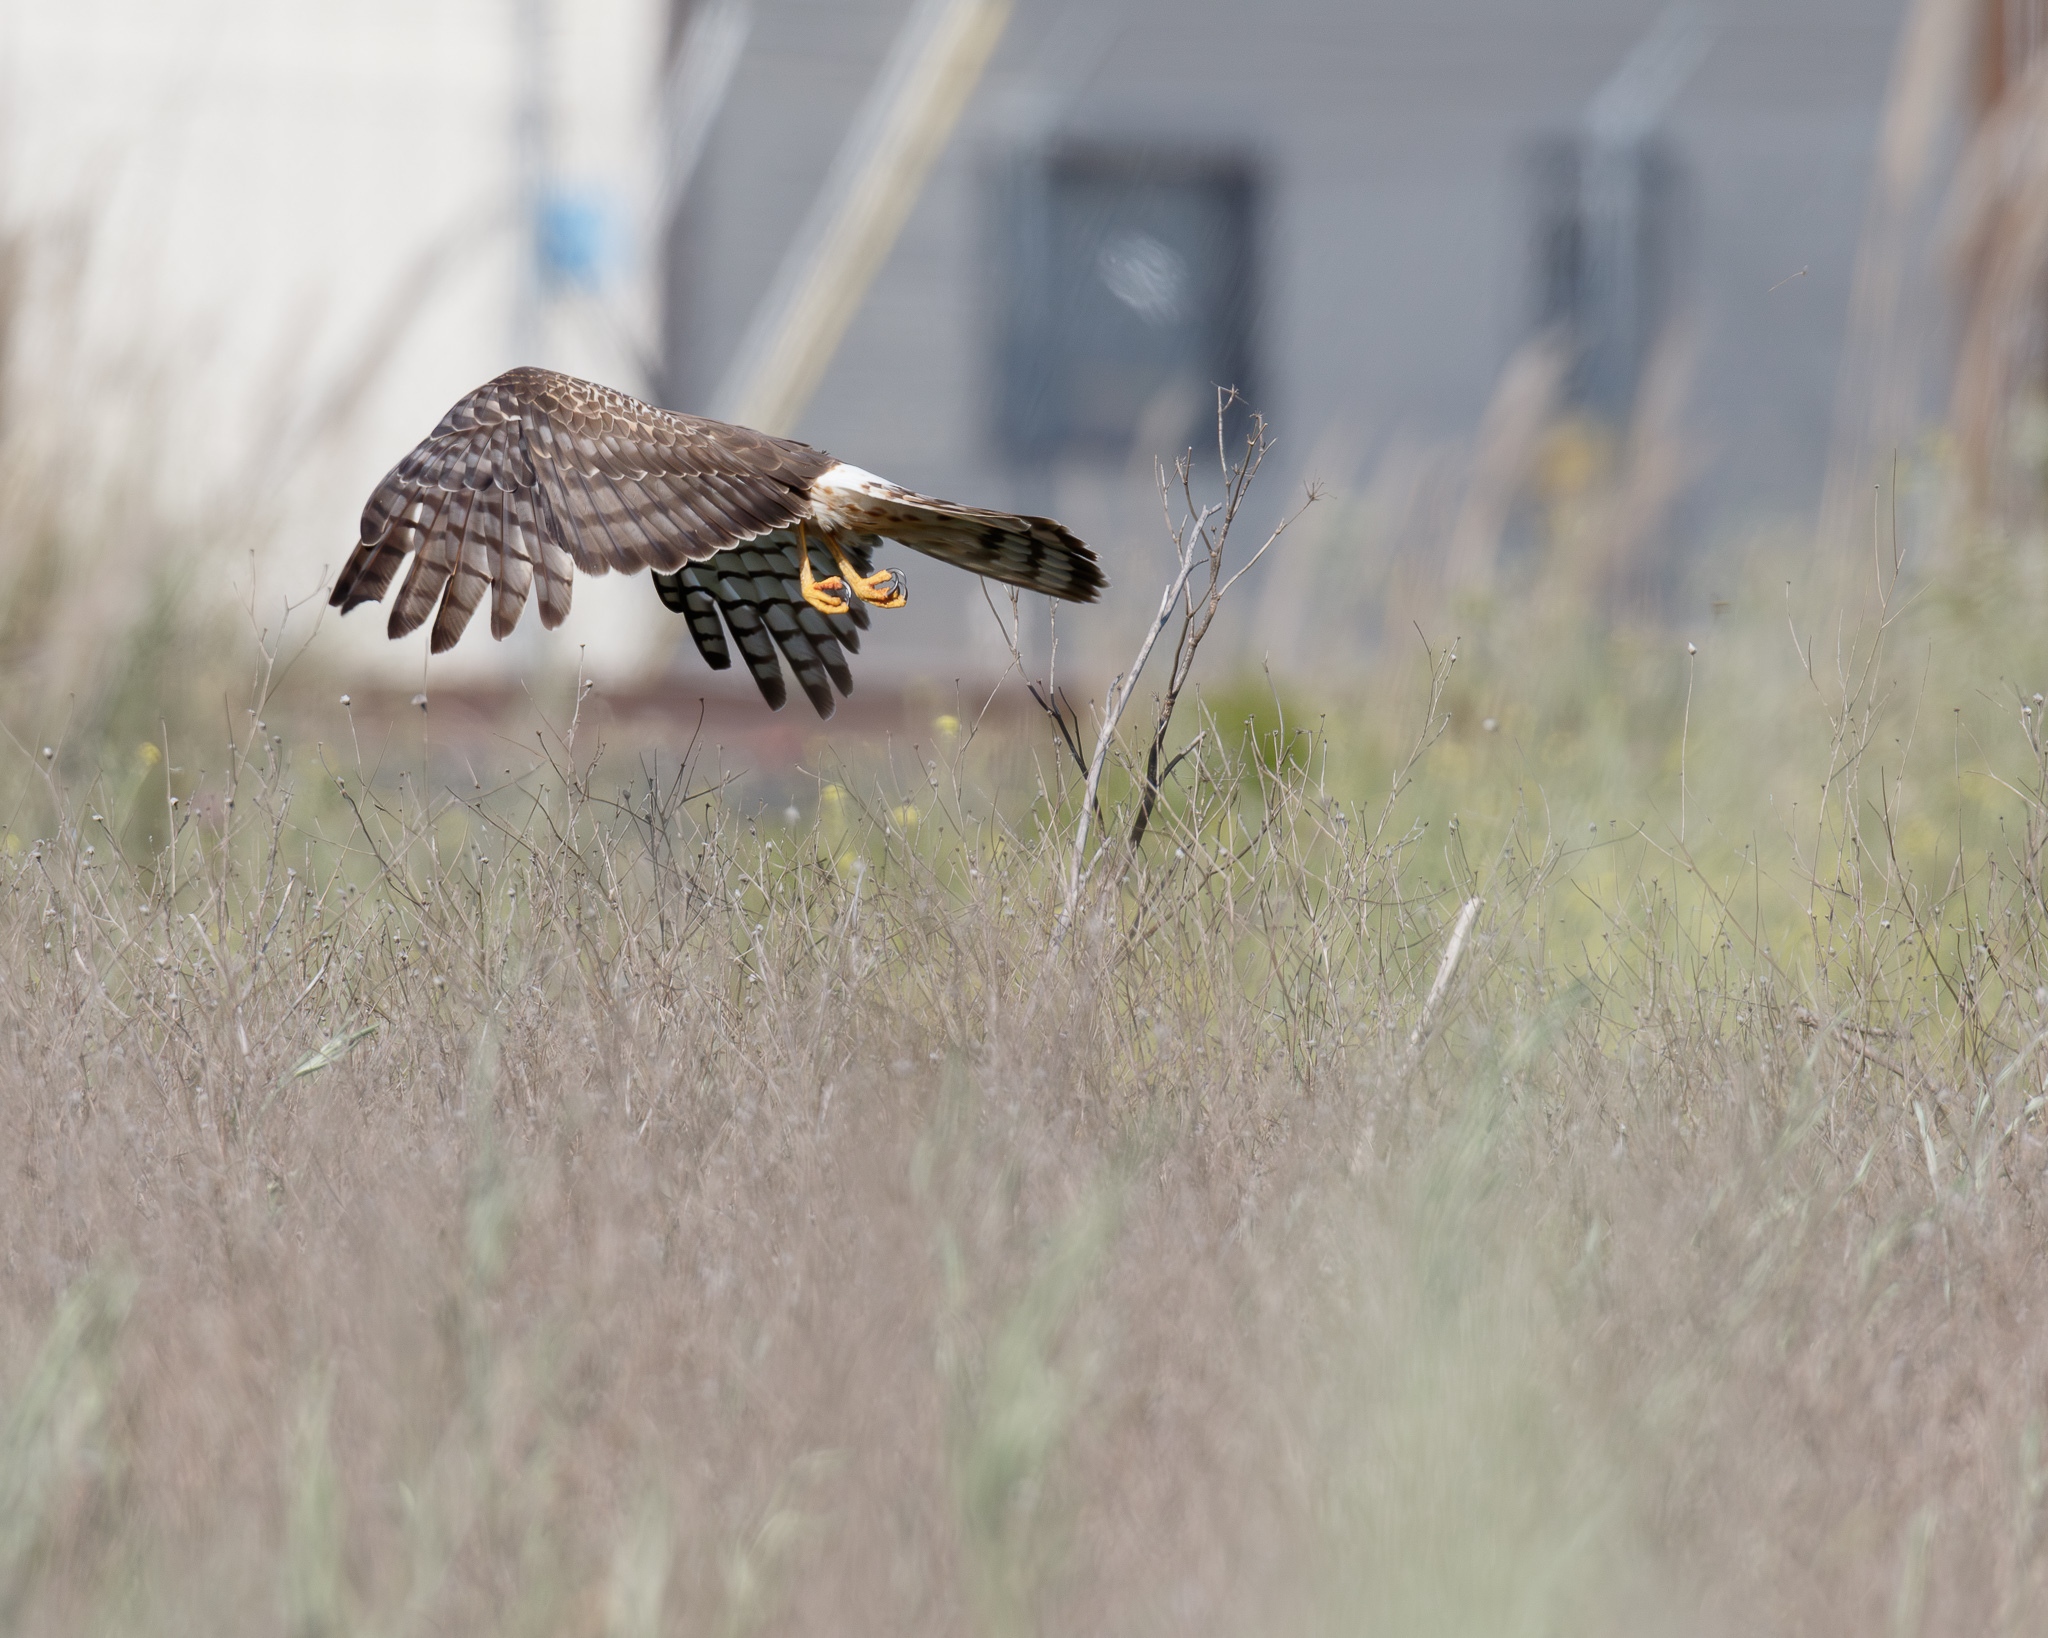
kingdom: Animalia
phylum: Chordata
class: Aves
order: Accipitriformes
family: Accipitridae
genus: Circus
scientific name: Circus cyaneus
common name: Hen harrier
